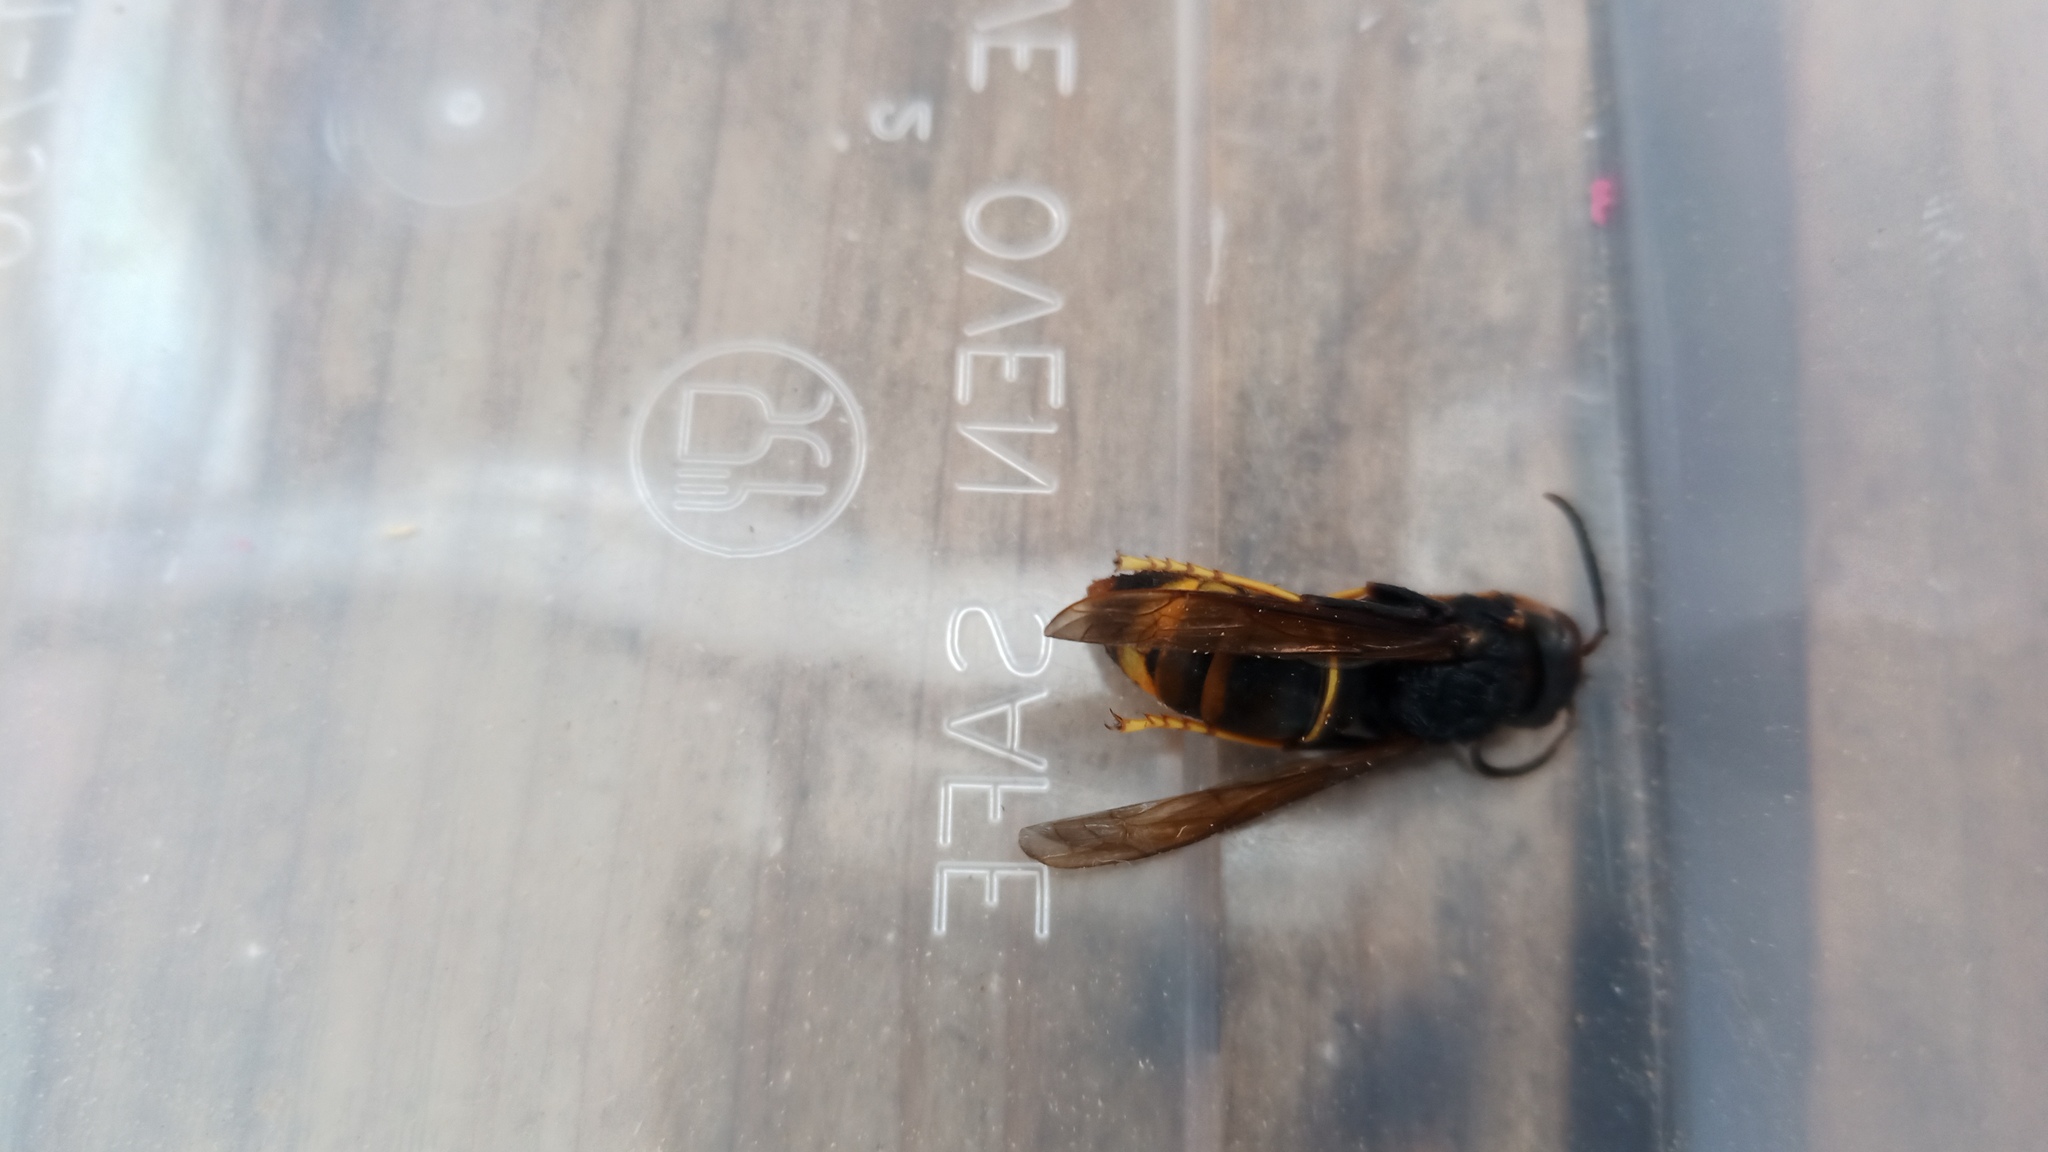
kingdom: Animalia
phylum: Arthropoda
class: Insecta
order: Hymenoptera
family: Vespidae
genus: Vespa
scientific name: Vespa velutina
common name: Asian hornet
